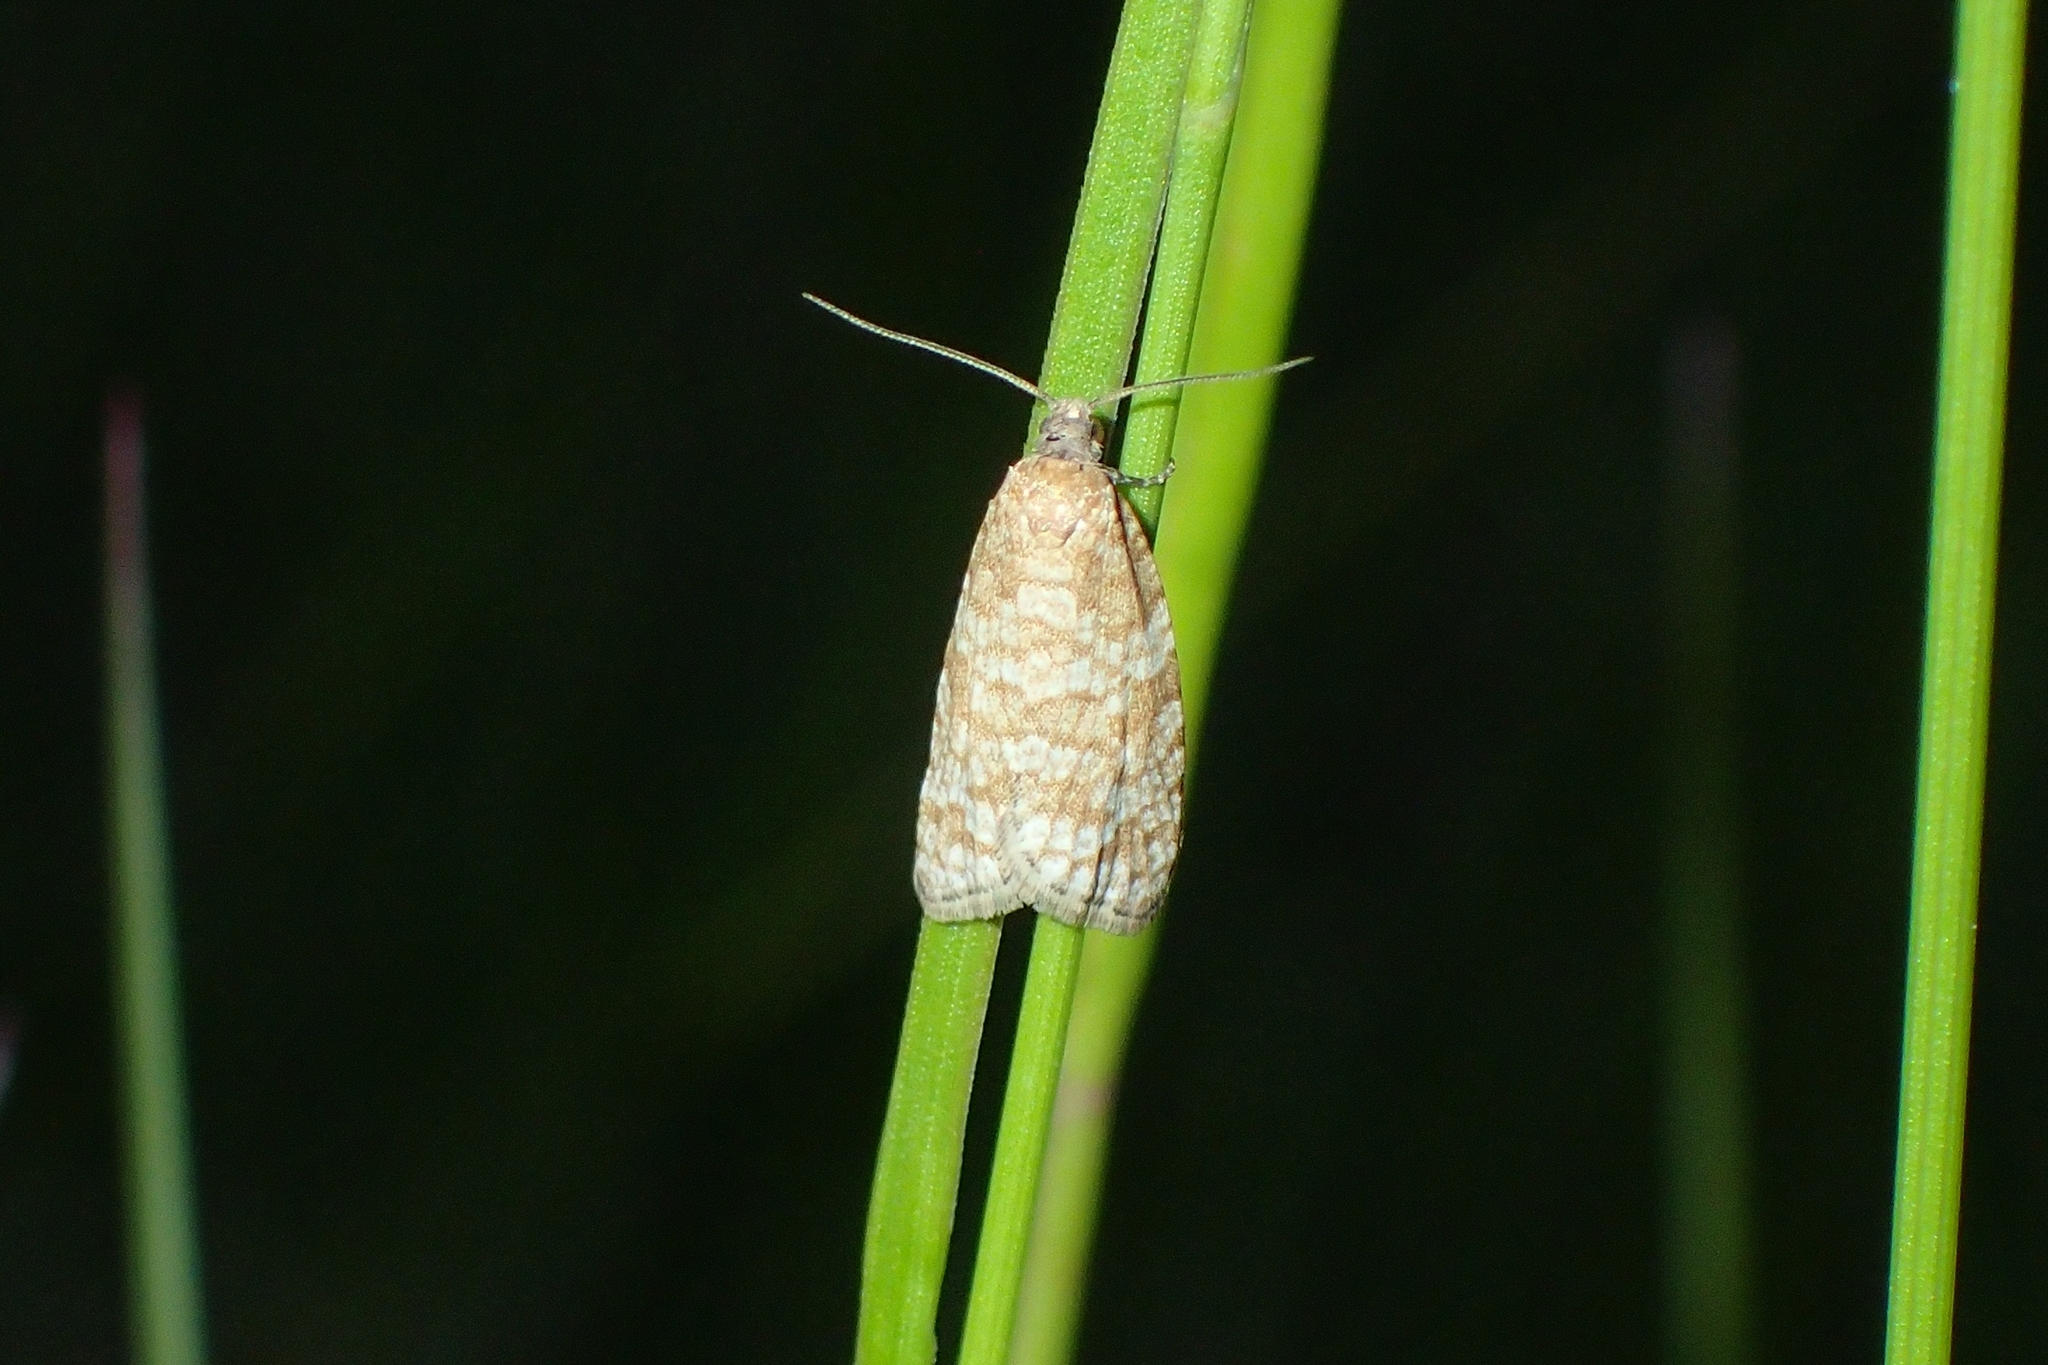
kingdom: Animalia
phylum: Arthropoda
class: Insecta
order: Lepidoptera
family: Tortricidae
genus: Isotrias
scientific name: Isotrias stramentana
